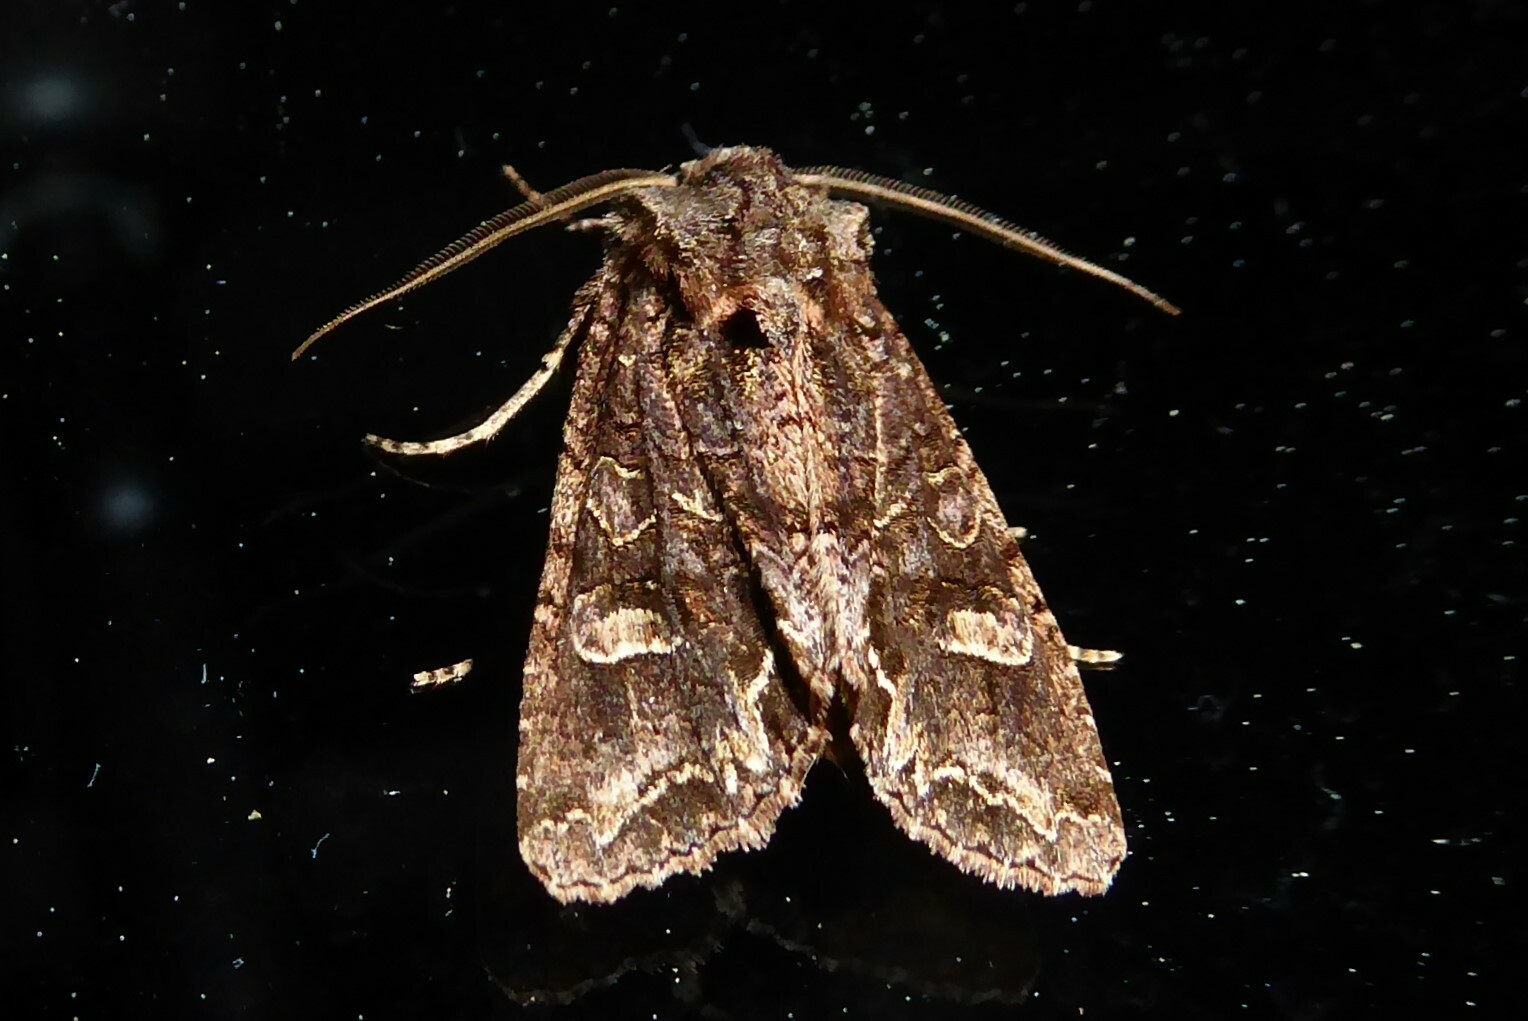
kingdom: Animalia
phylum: Arthropoda
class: Insecta
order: Lepidoptera
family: Noctuidae
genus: Ichneutica
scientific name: Ichneutica skelloni
